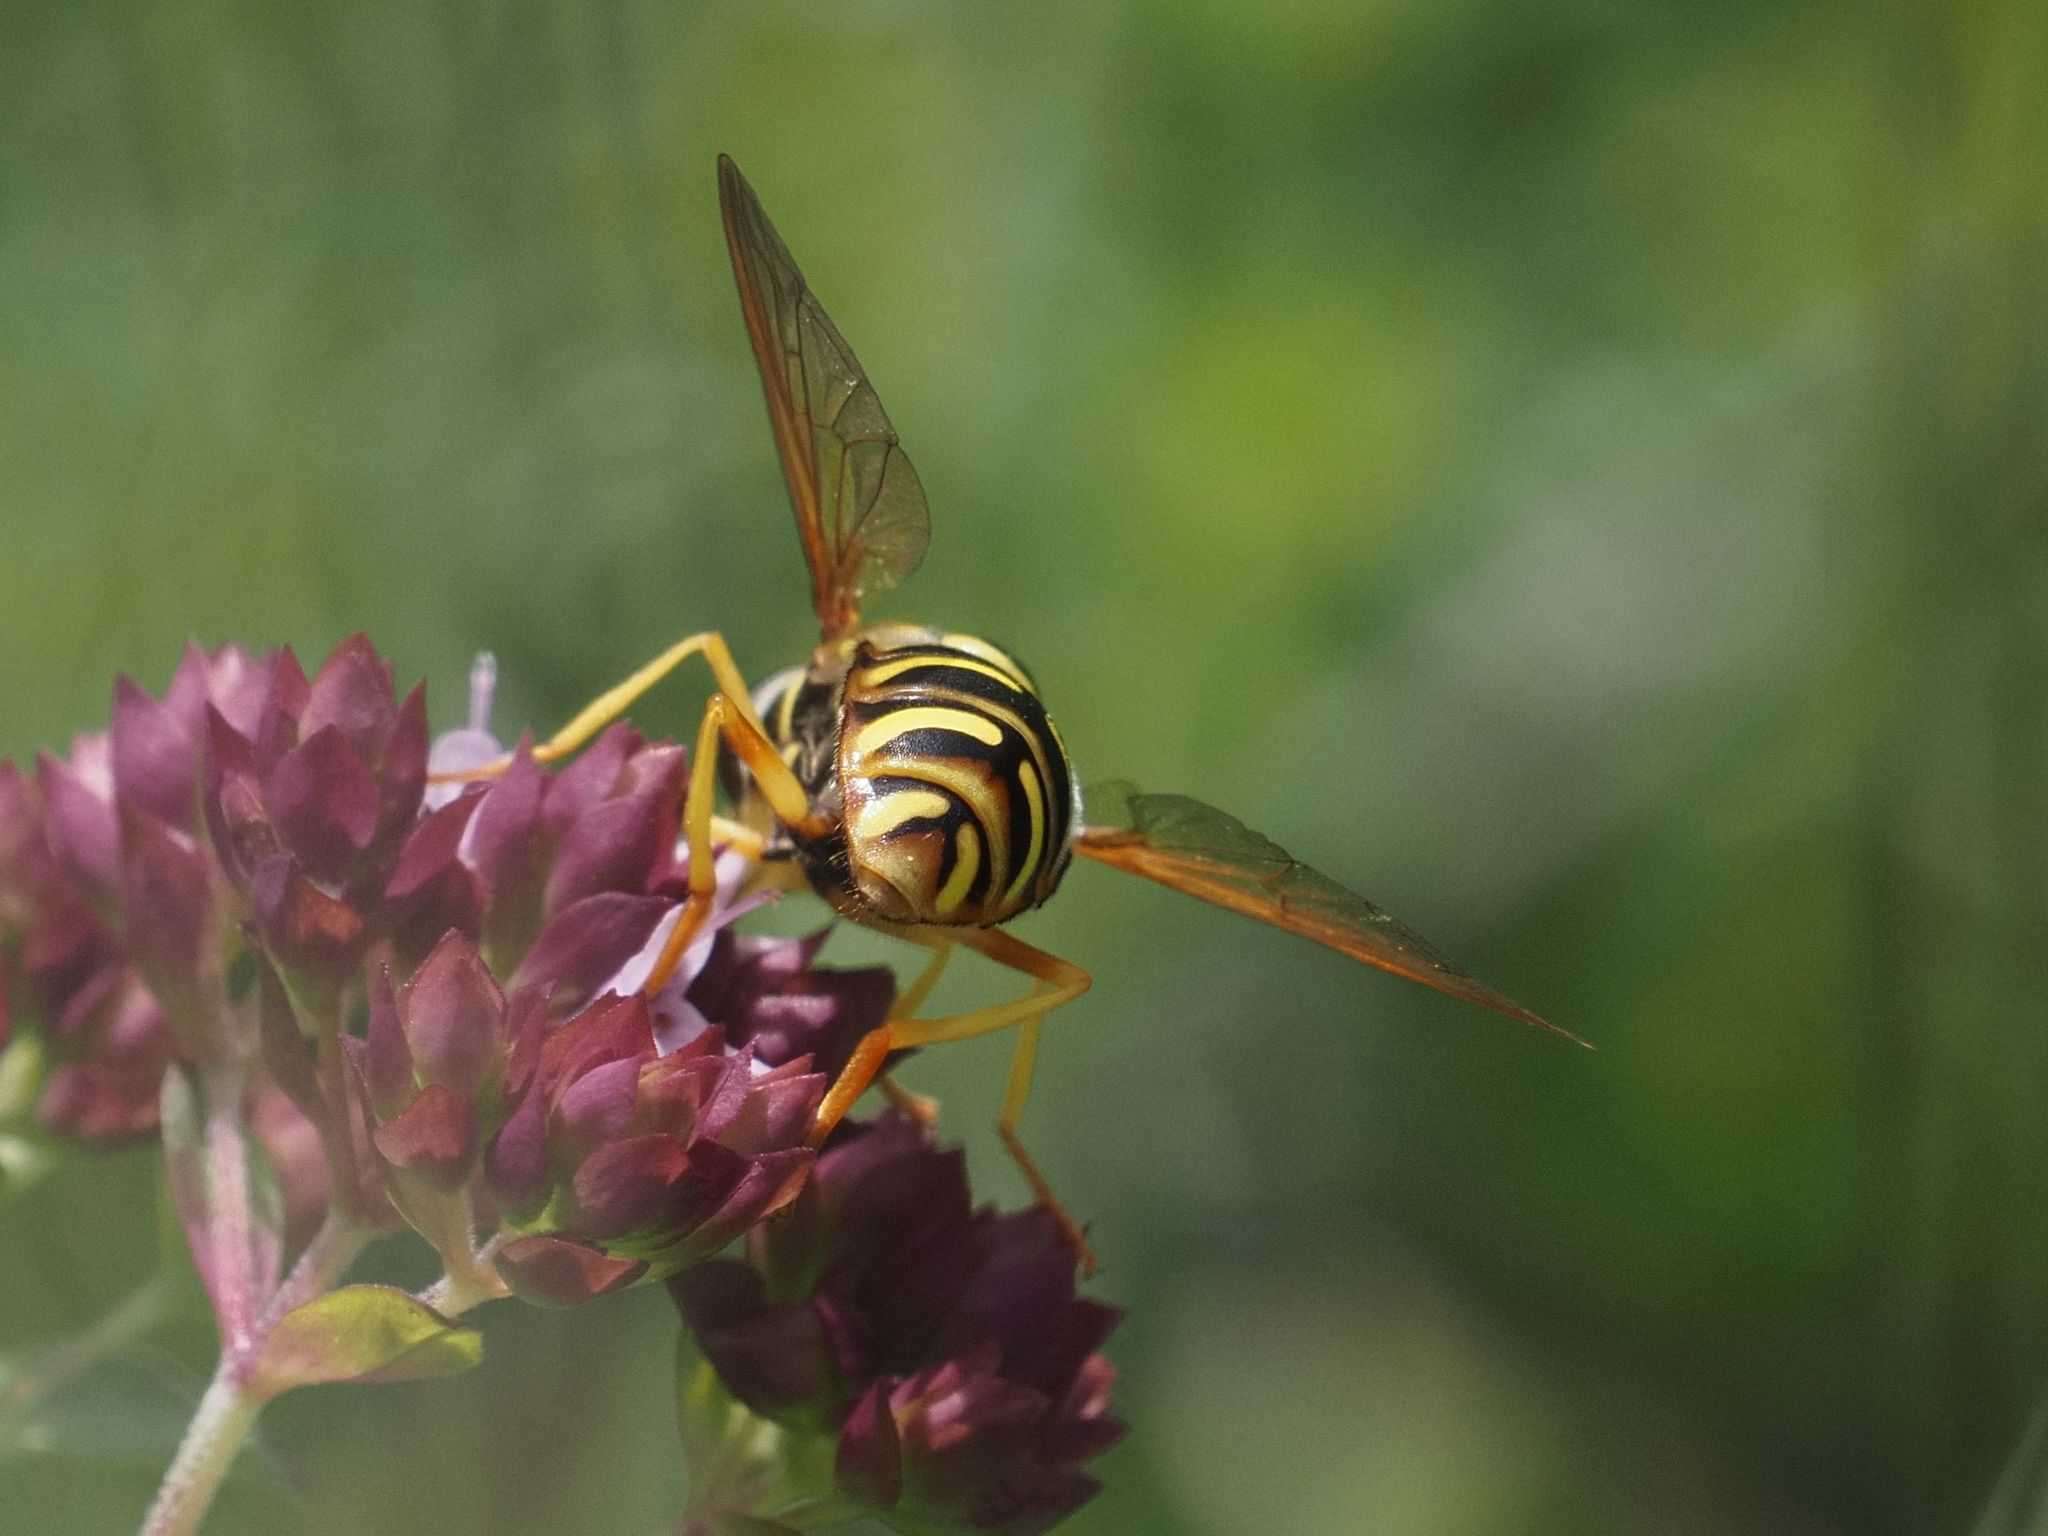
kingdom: Animalia
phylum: Arthropoda
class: Insecta
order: Diptera
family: Syrphidae
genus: Chrysotoxum
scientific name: Chrysotoxum elegans
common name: Zipperback
